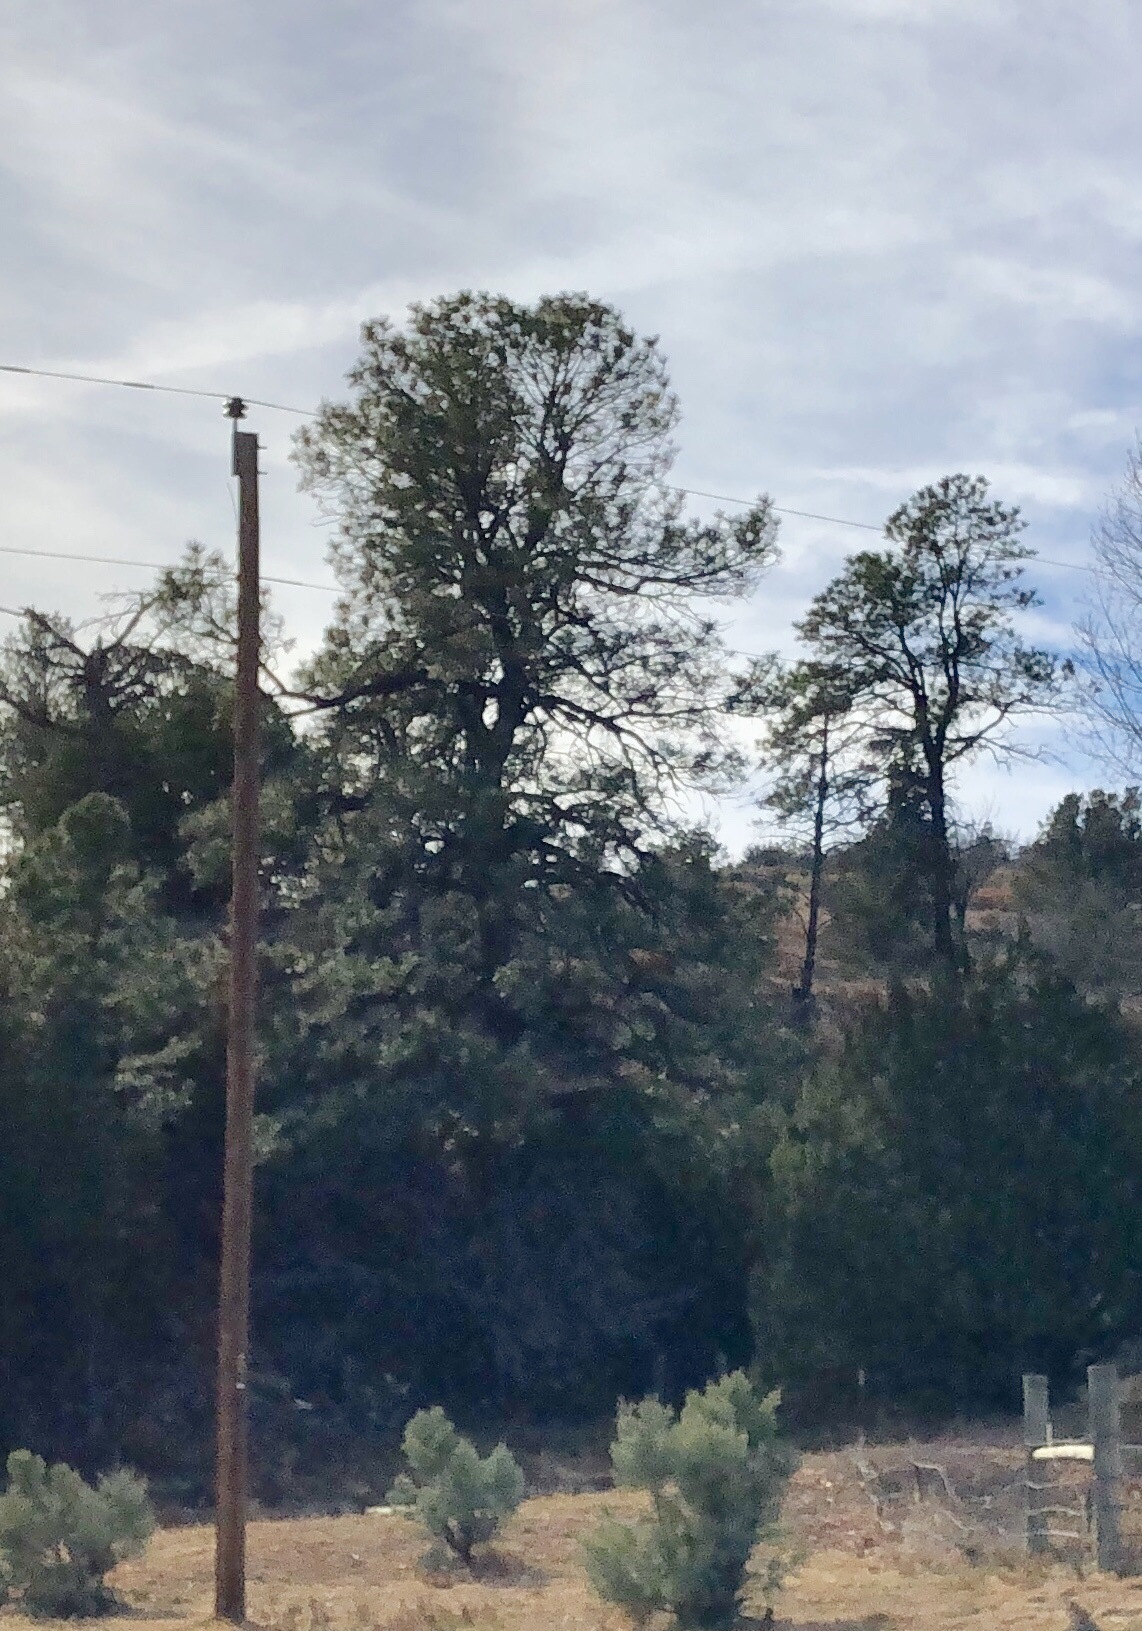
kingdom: Plantae
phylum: Tracheophyta
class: Pinopsida
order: Pinales
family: Pinaceae
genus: Pinus
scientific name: Pinus ponderosa
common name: Western yellow-pine
